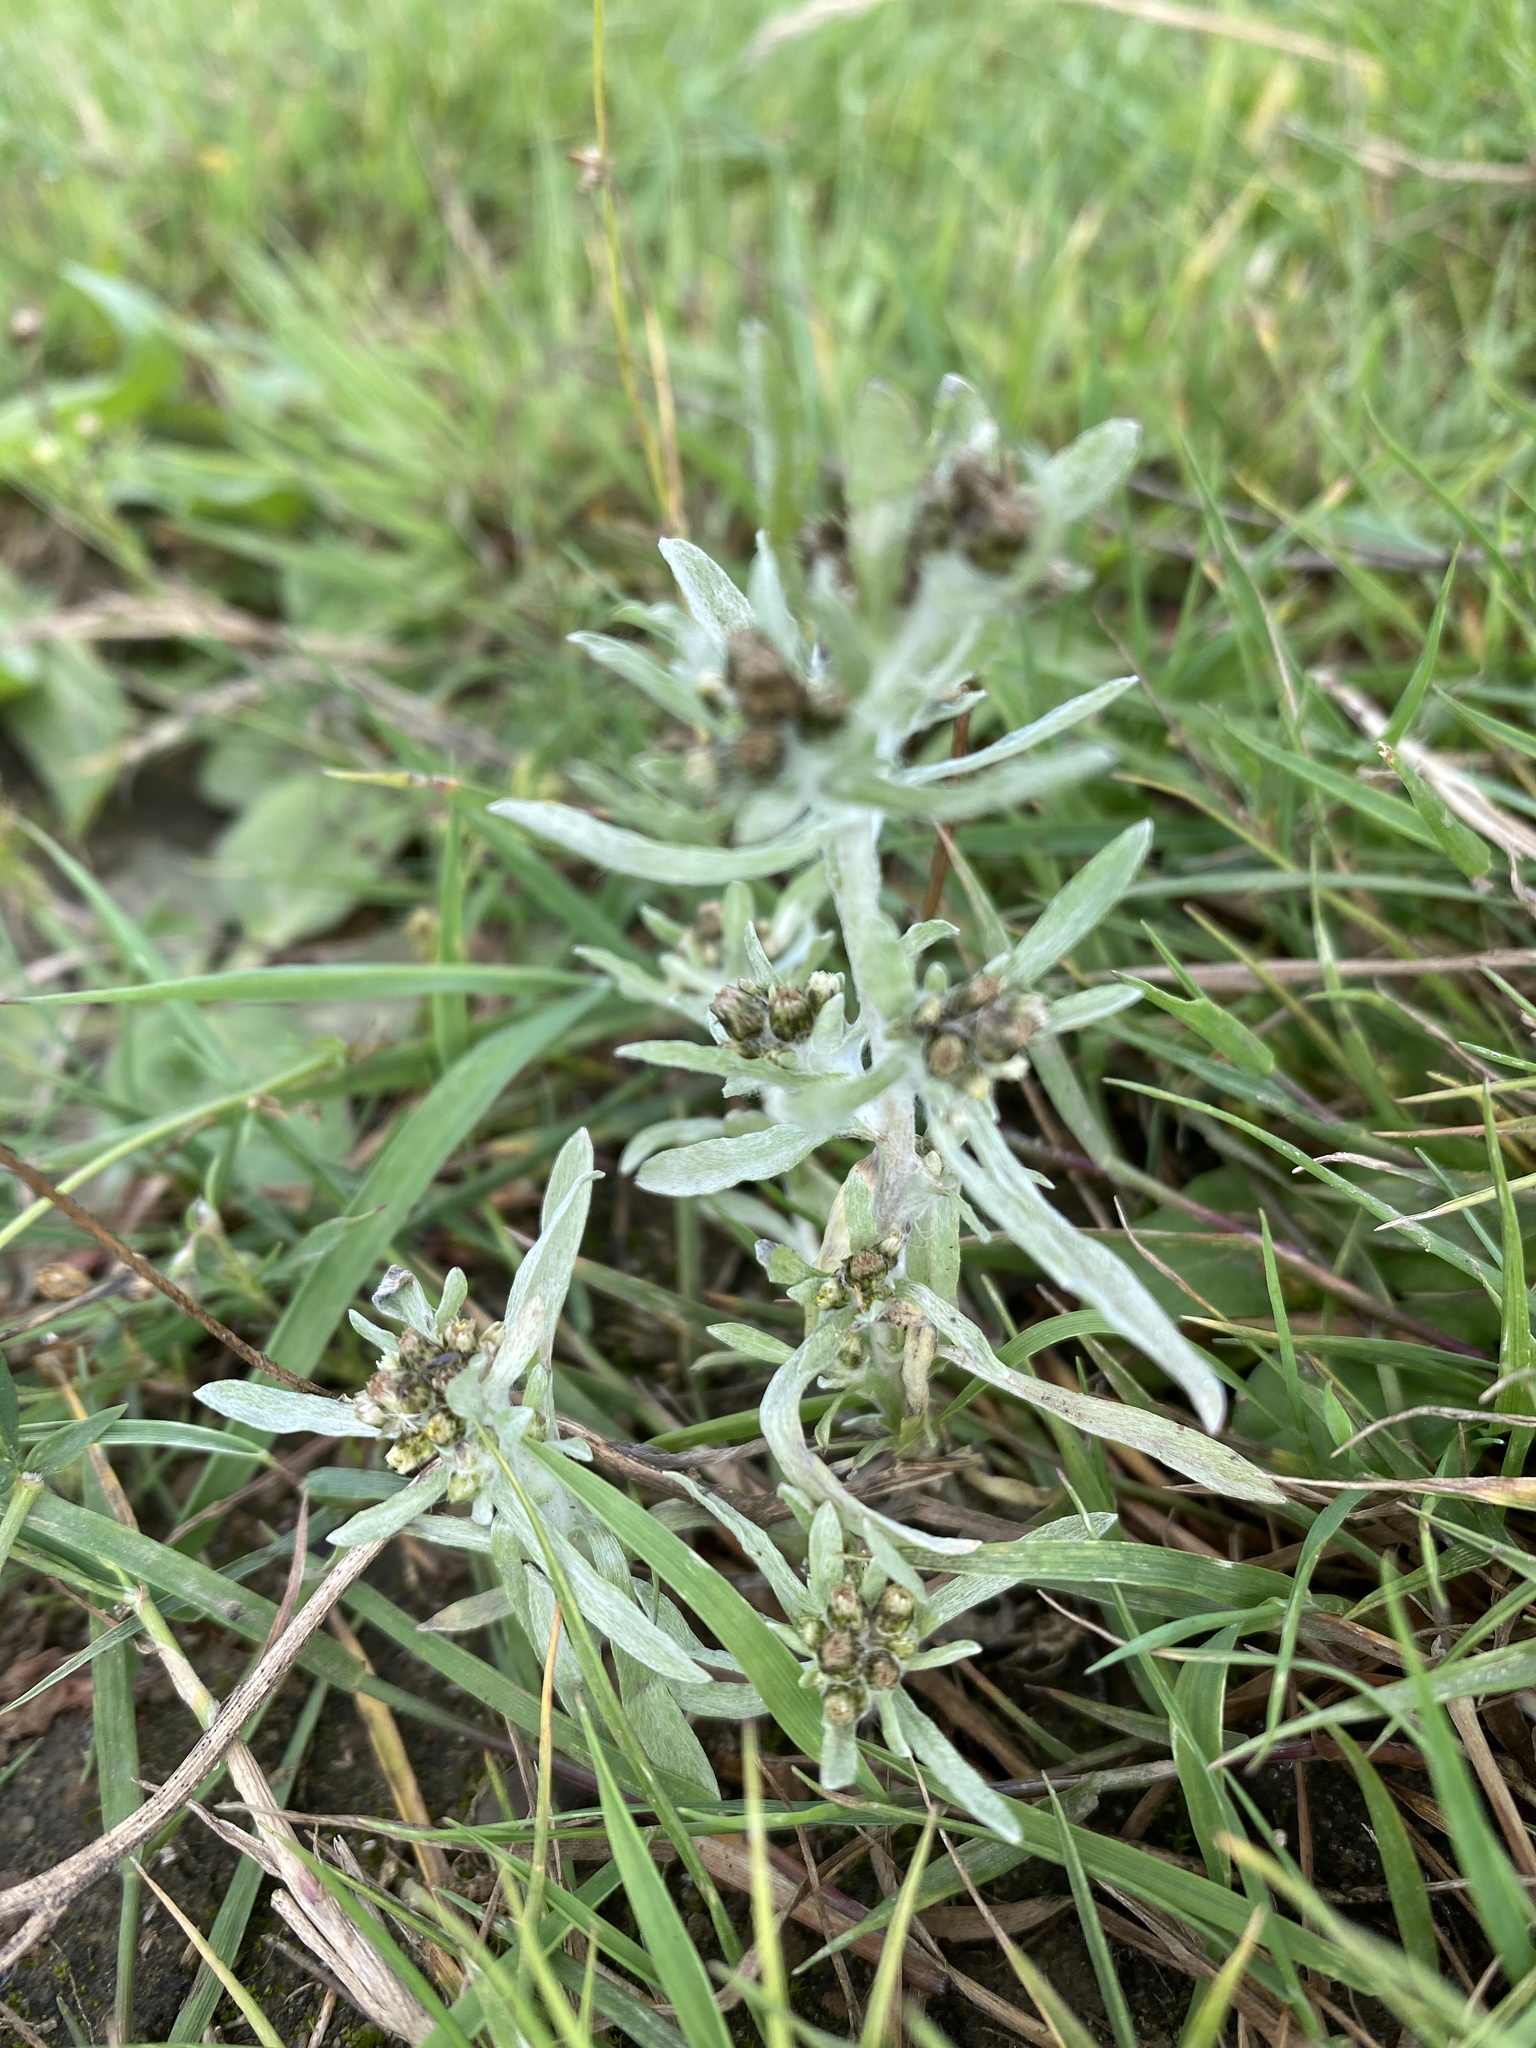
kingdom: Plantae
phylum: Tracheophyta
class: Magnoliopsida
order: Asterales
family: Asteraceae
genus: Gnaphalium
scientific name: Gnaphalium uliginosum
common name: Marsh cudweed
